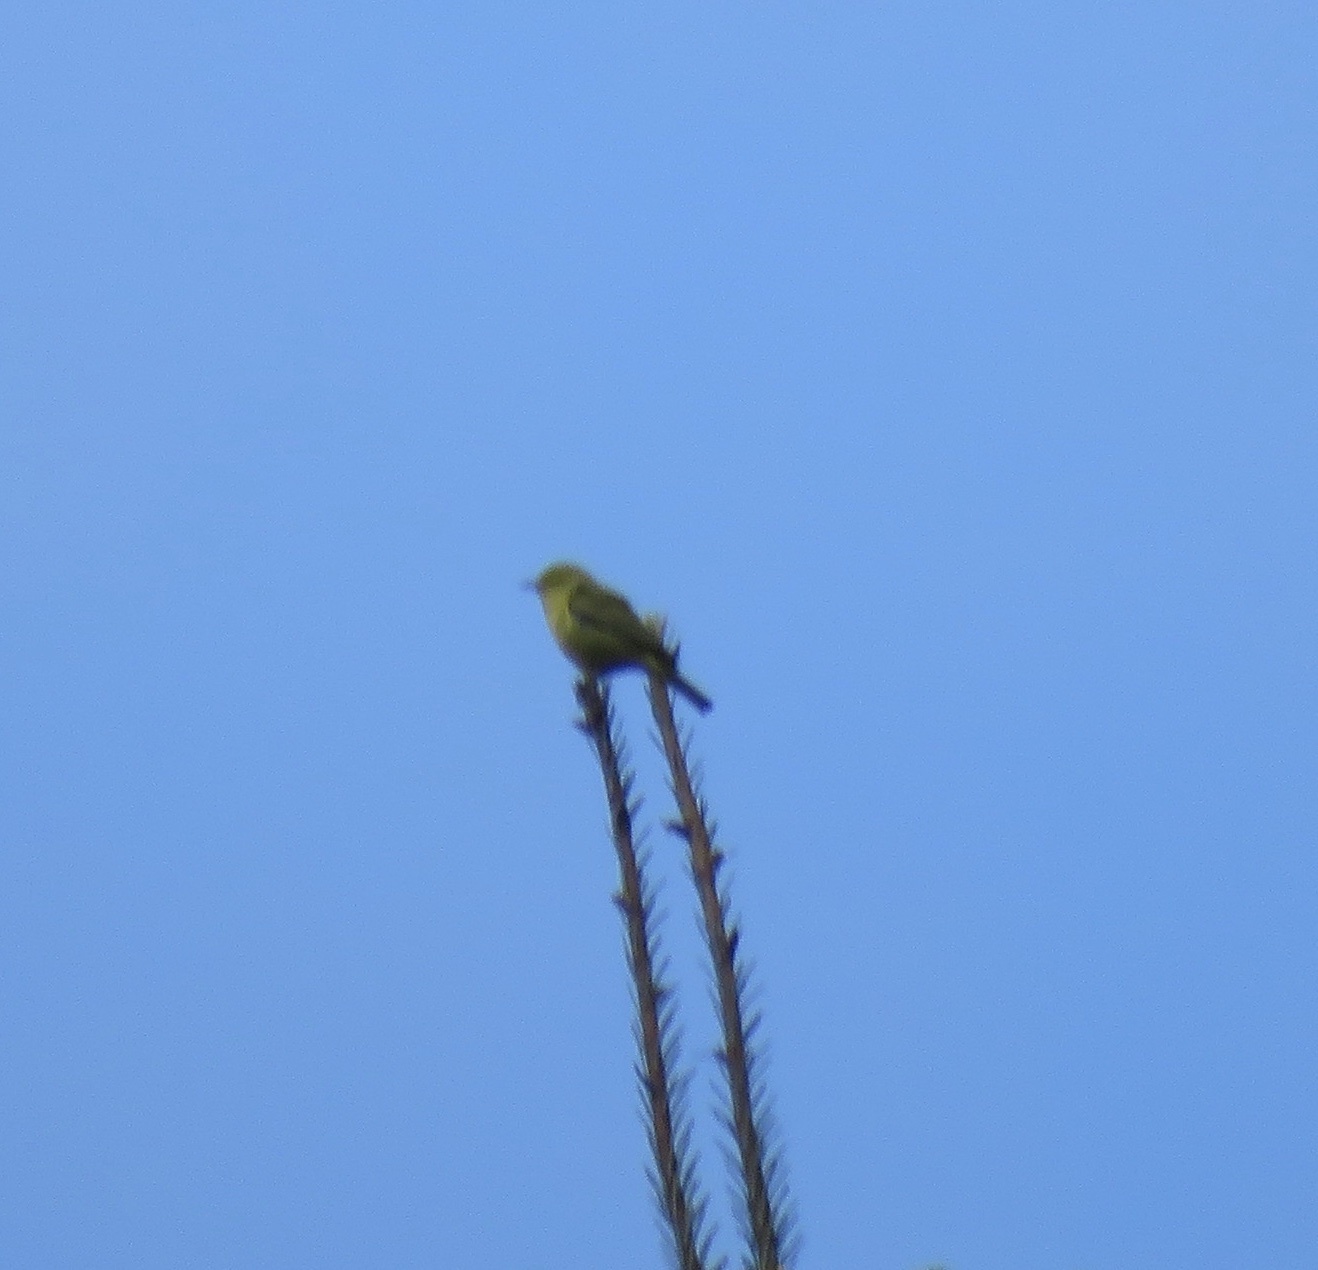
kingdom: Animalia
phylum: Chordata
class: Aves
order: Passeriformes
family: Parulidae
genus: Leiothlypis
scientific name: Leiothlypis celata
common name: Orange-crowned warbler
